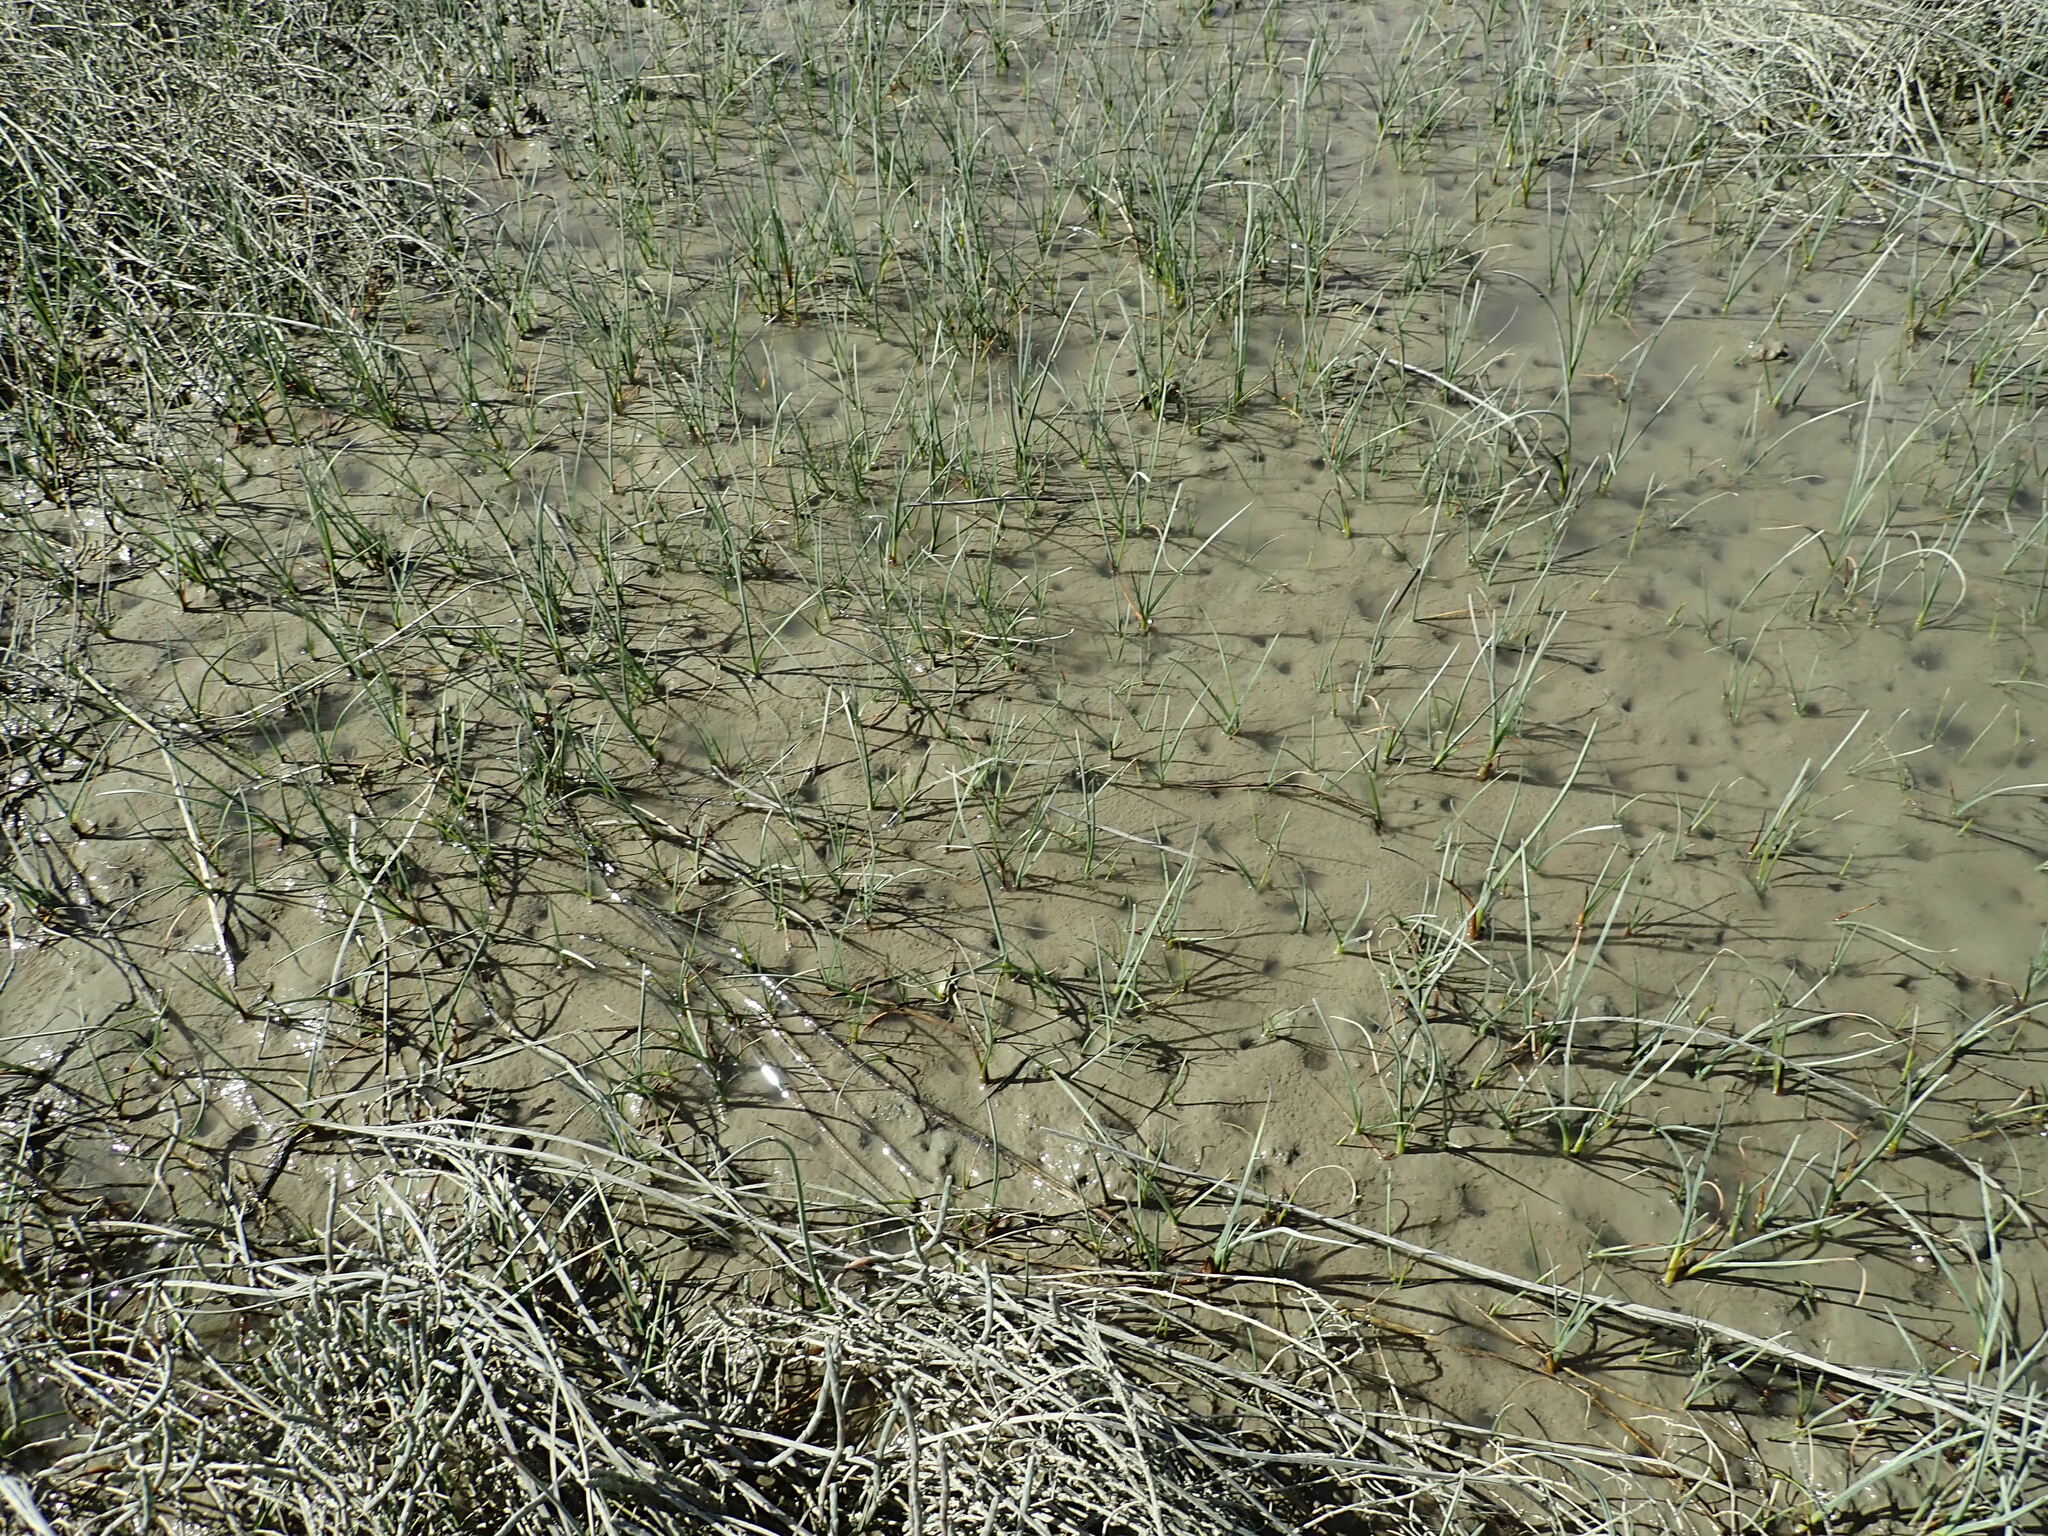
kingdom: Plantae
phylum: Tracheophyta
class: Liliopsida
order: Poales
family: Cyperaceae
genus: Schoenoplectus
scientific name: Schoenoplectus pungens
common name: Sharp club-rush
